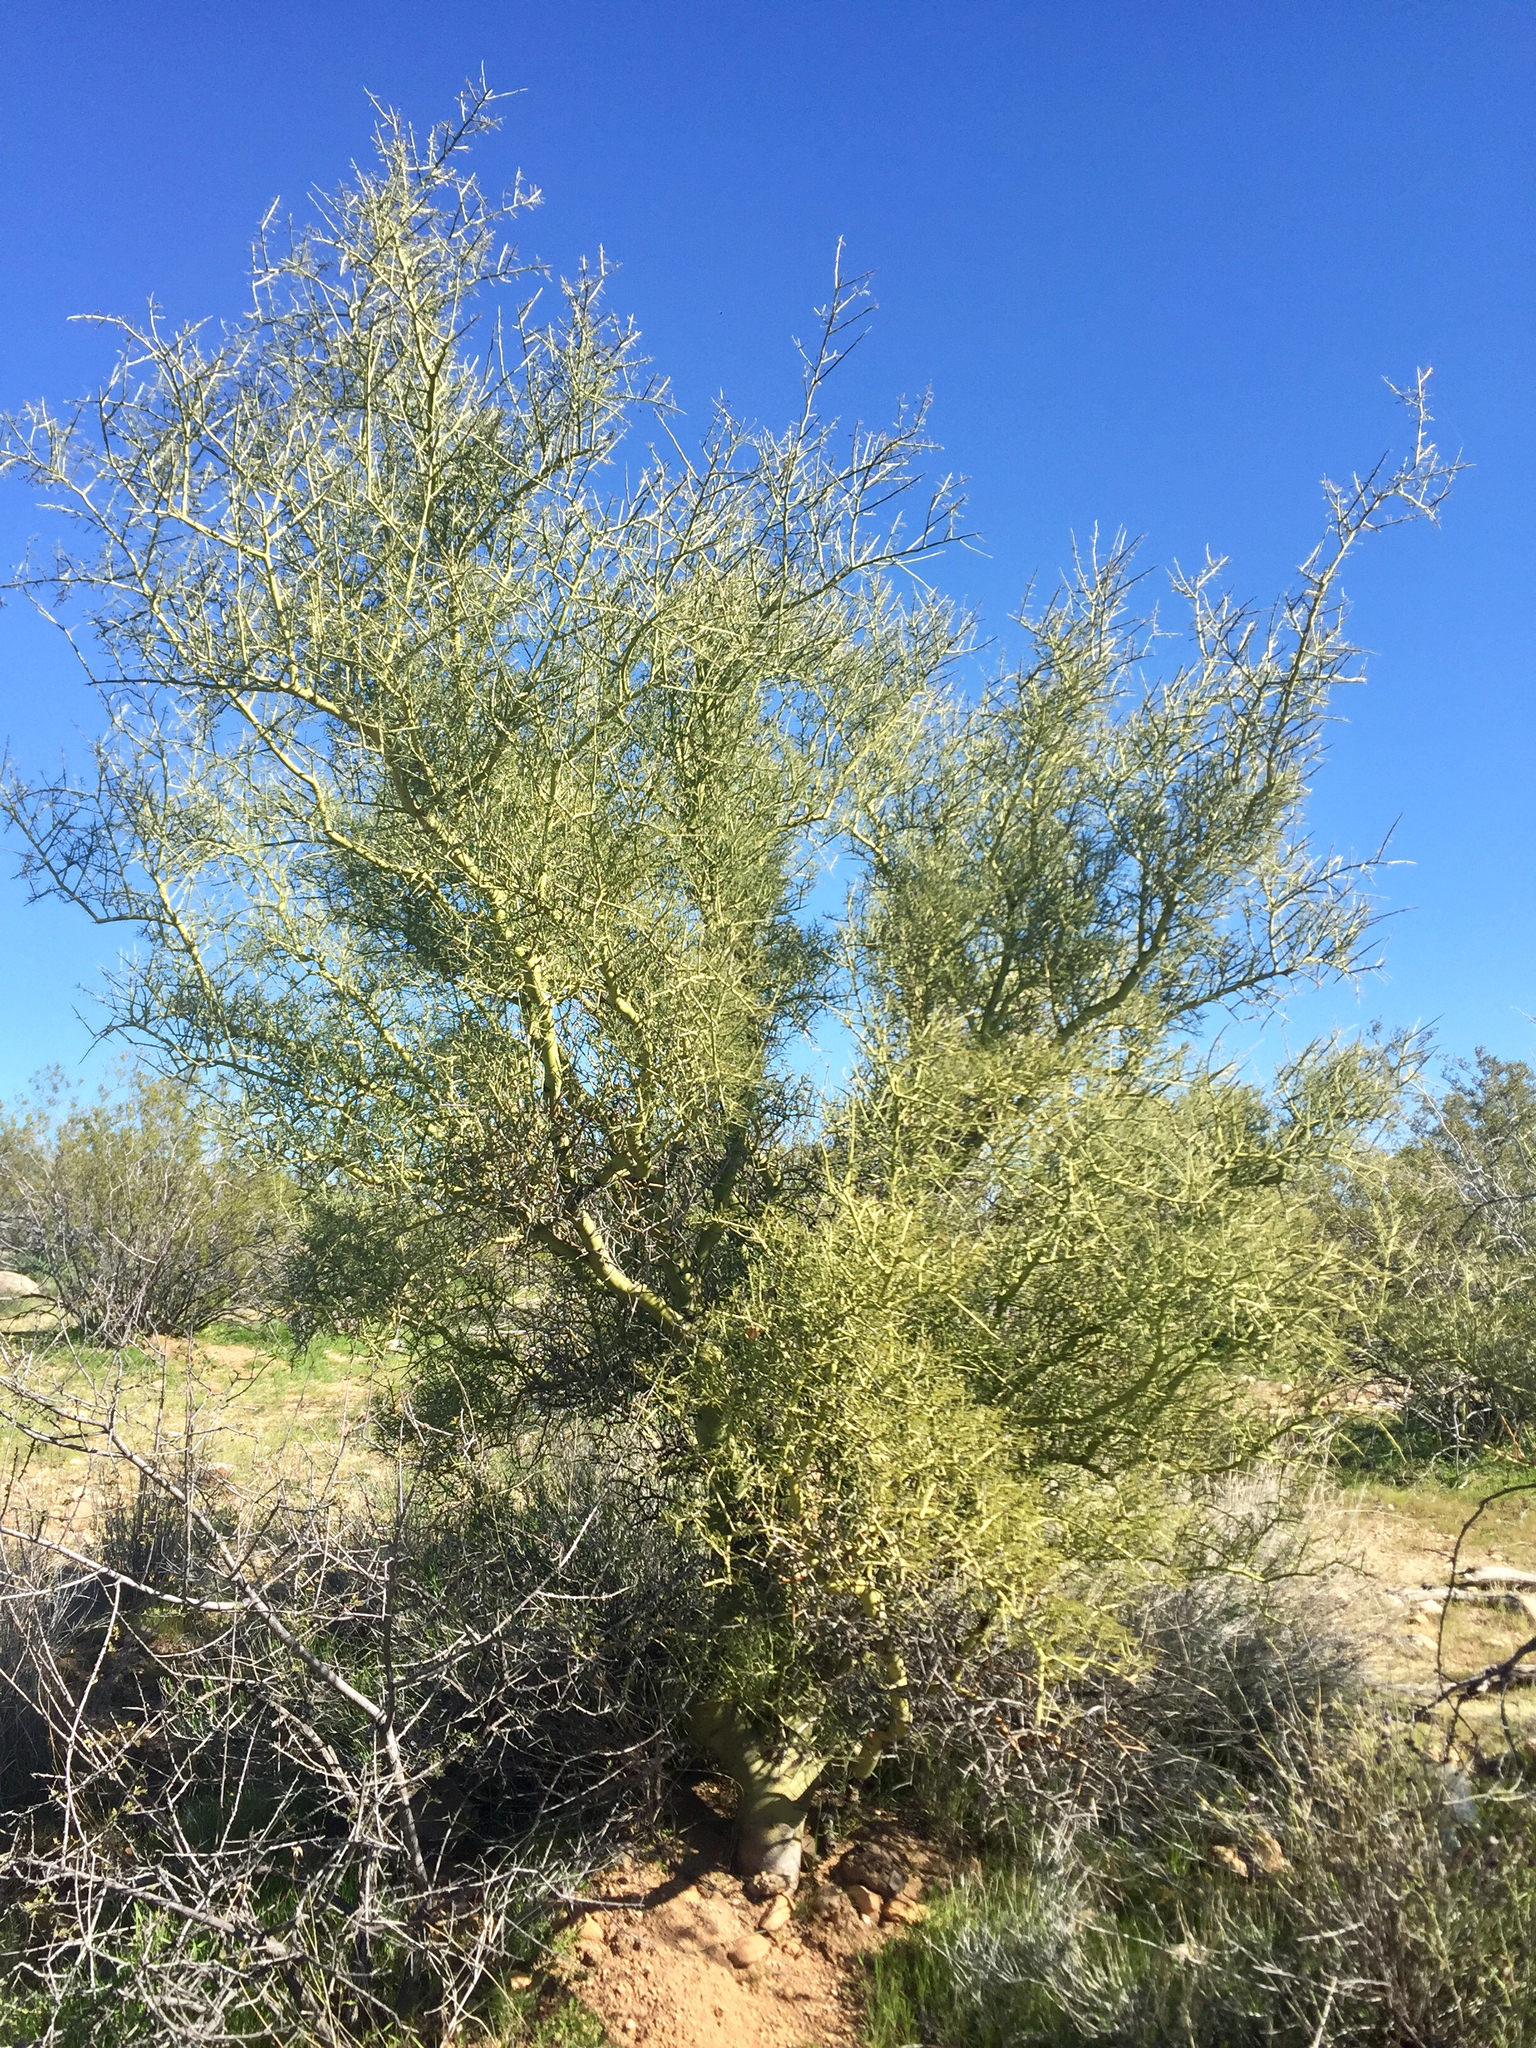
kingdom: Plantae
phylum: Tracheophyta
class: Magnoliopsida
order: Fabales
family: Fabaceae
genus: Parkinsonia
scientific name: Parkinsonia microphylla
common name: Yellow paloverde
